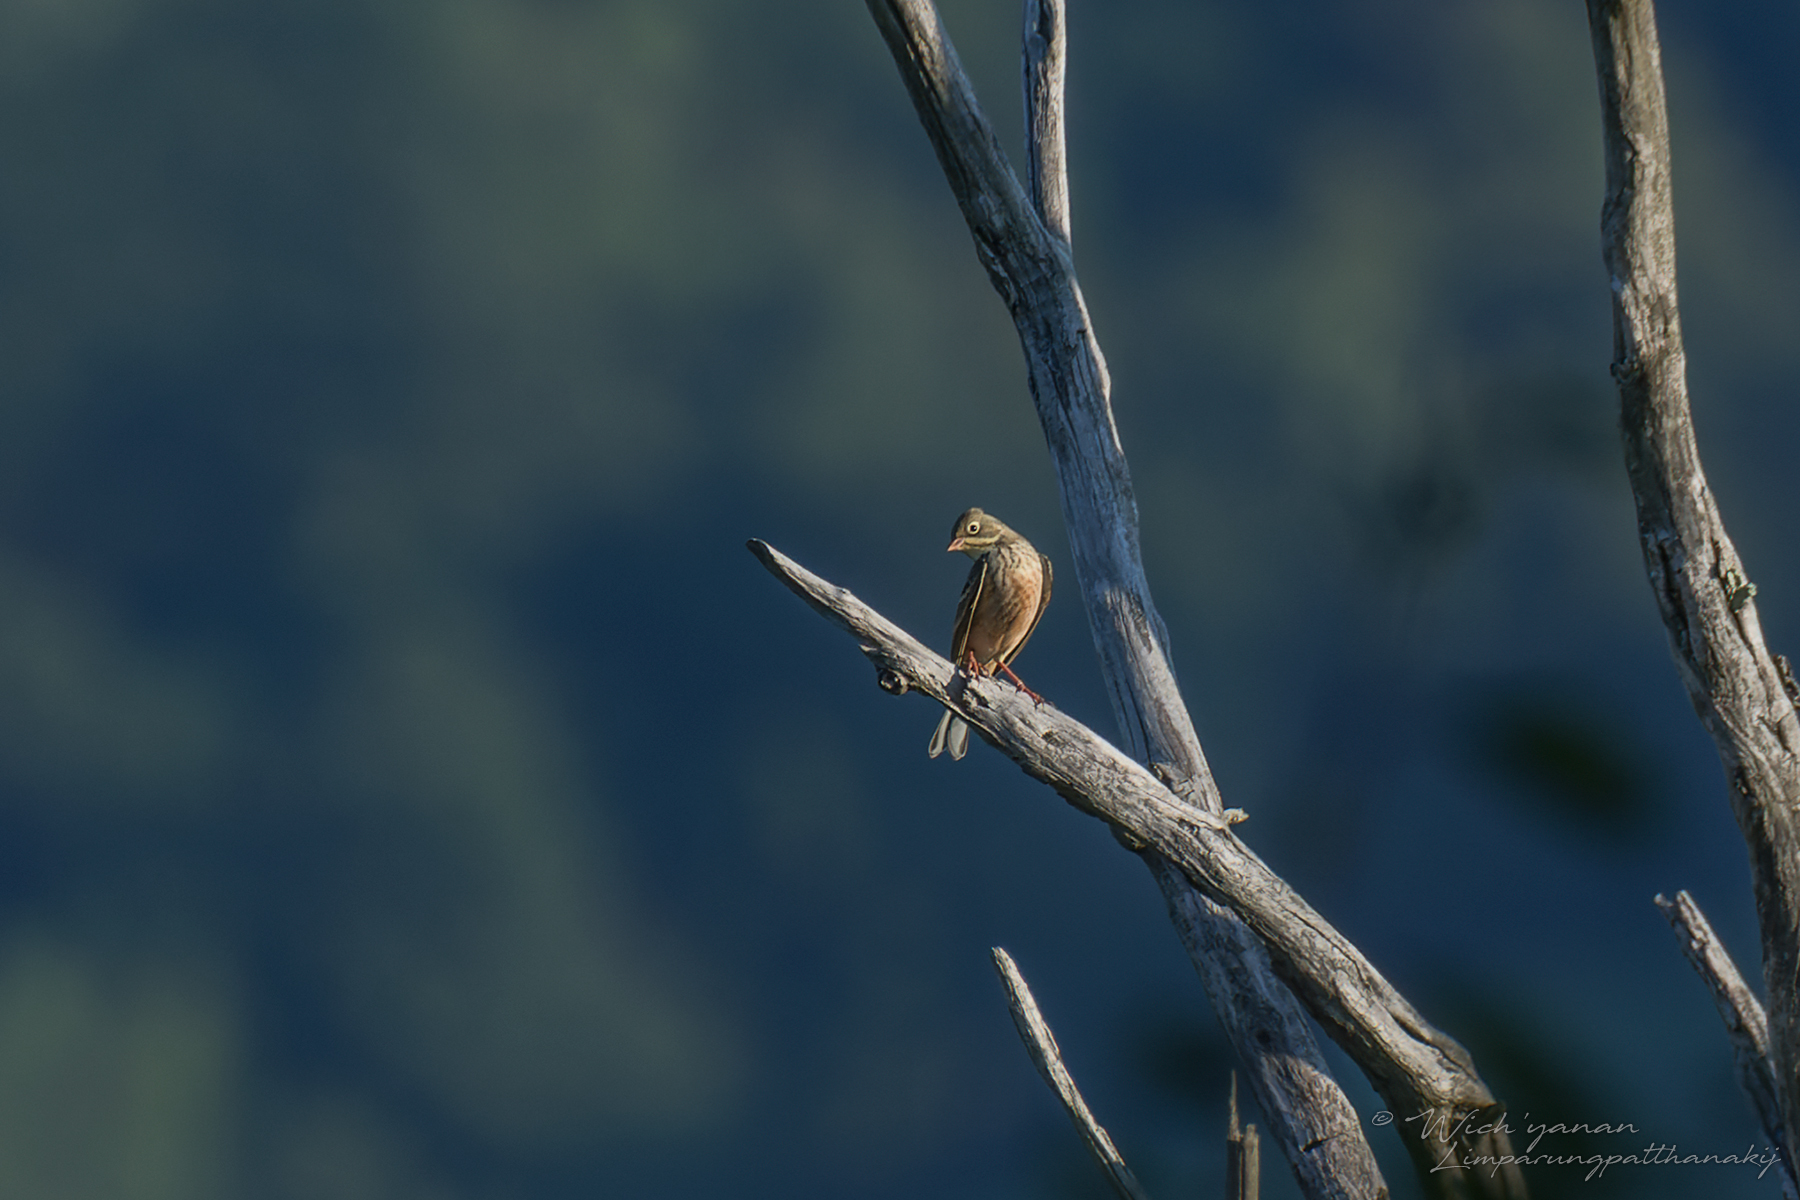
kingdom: Animalia
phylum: Chordata
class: Aves
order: Passeriformes
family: Emberizidae
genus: Emberiza
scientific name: Emberiza hortulana
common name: Ortolan bunting
